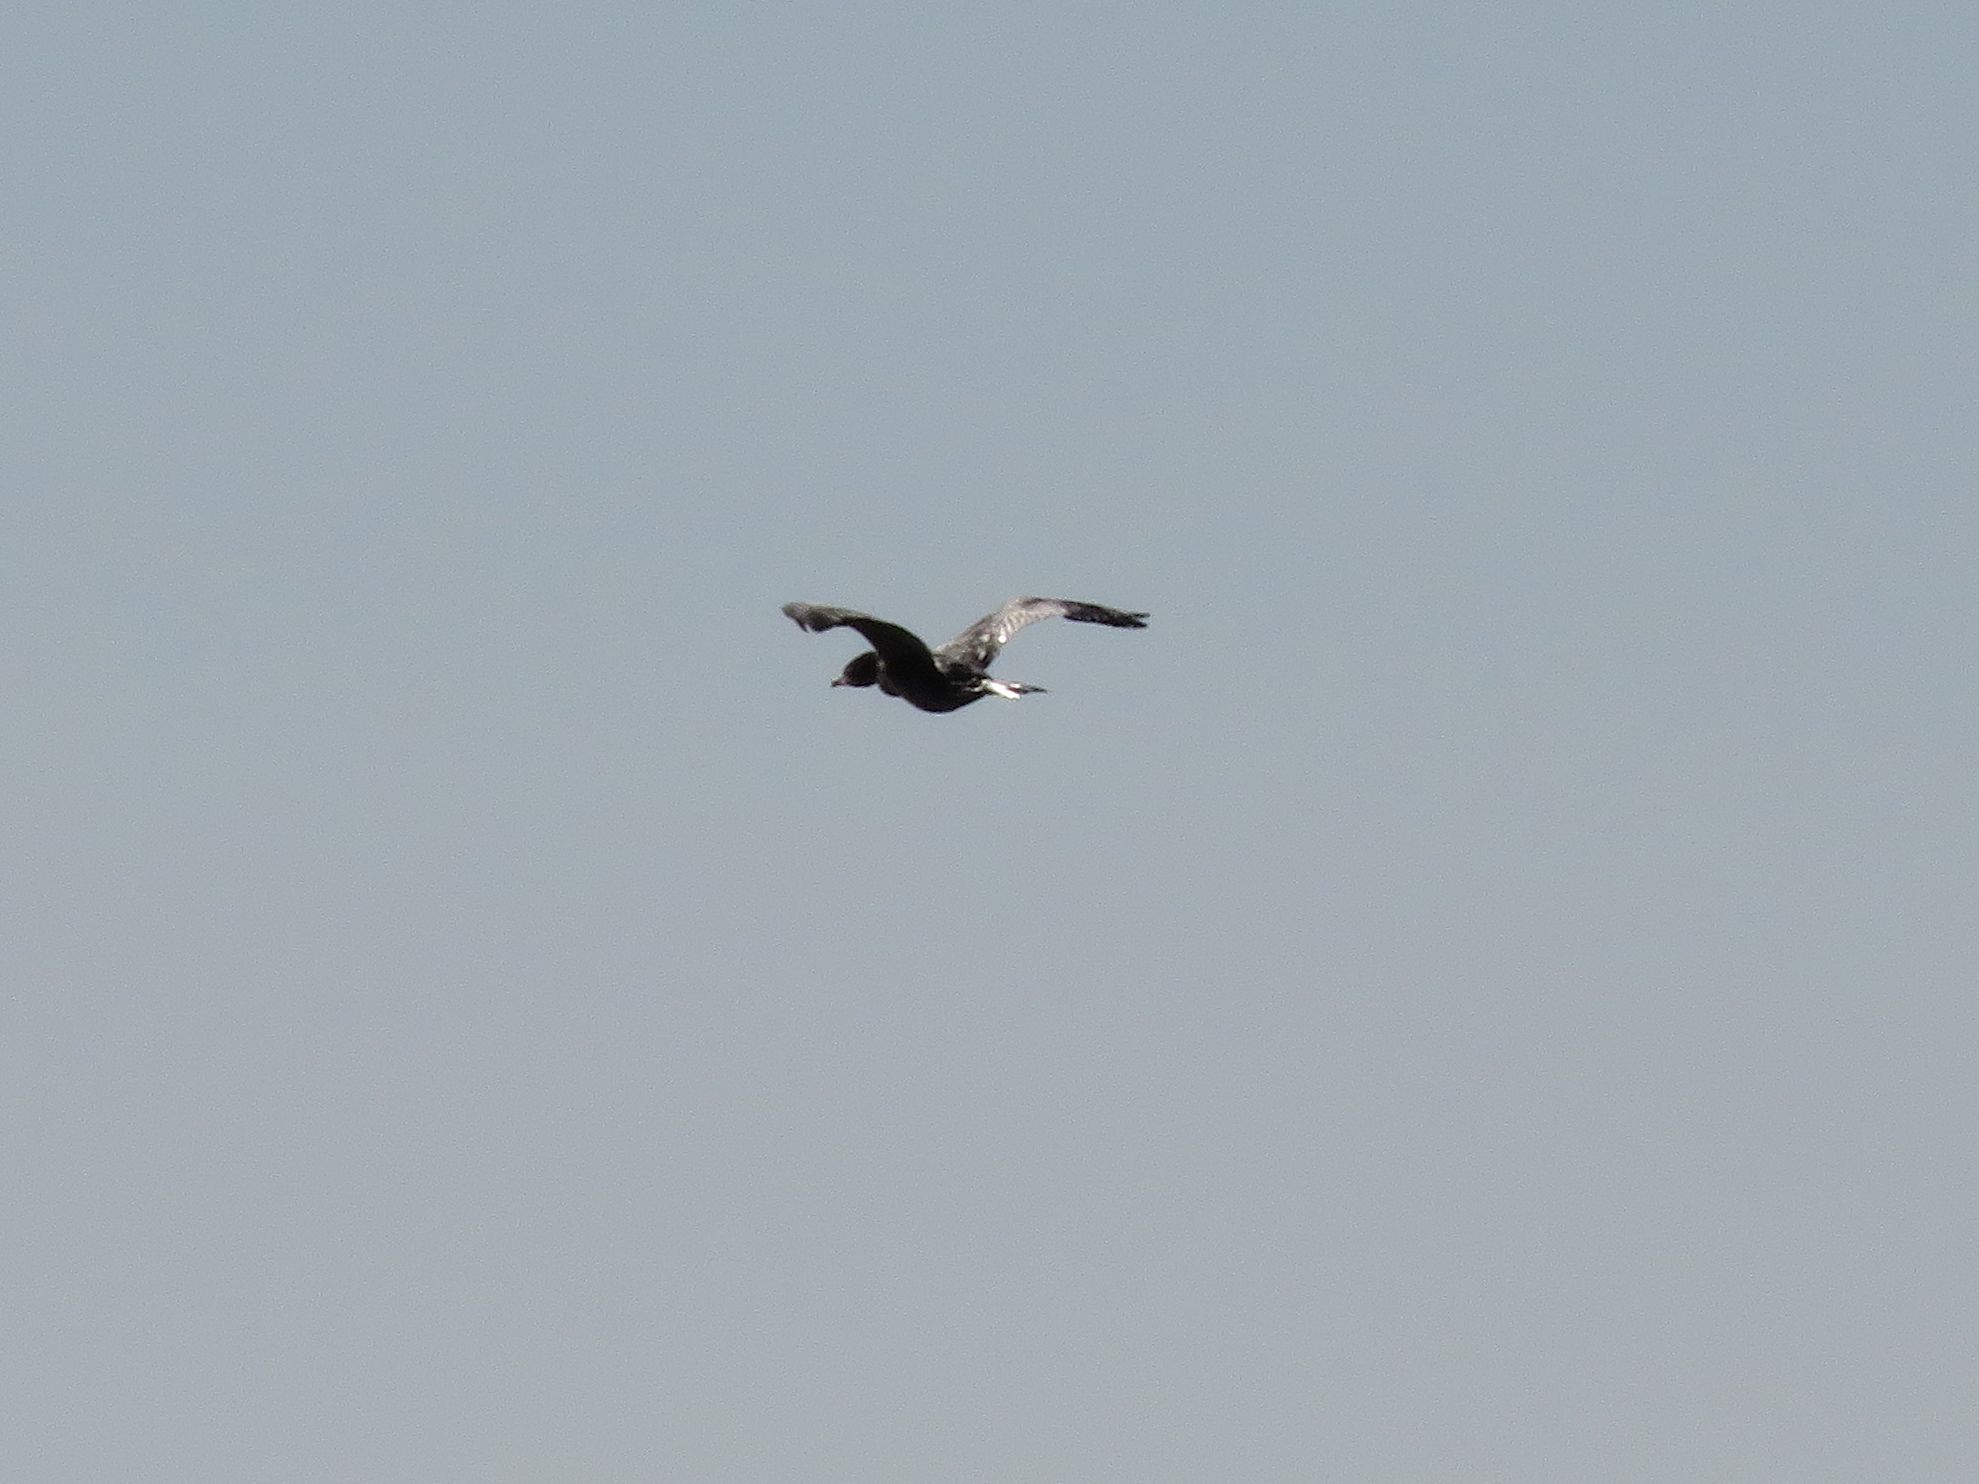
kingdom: Animalia
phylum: Chordata
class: Aves
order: Suliformes
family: Phalacrocoracidae
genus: Phalacrocorax
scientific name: Phalacrocorax brasilianus
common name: Neotropic cormorant
